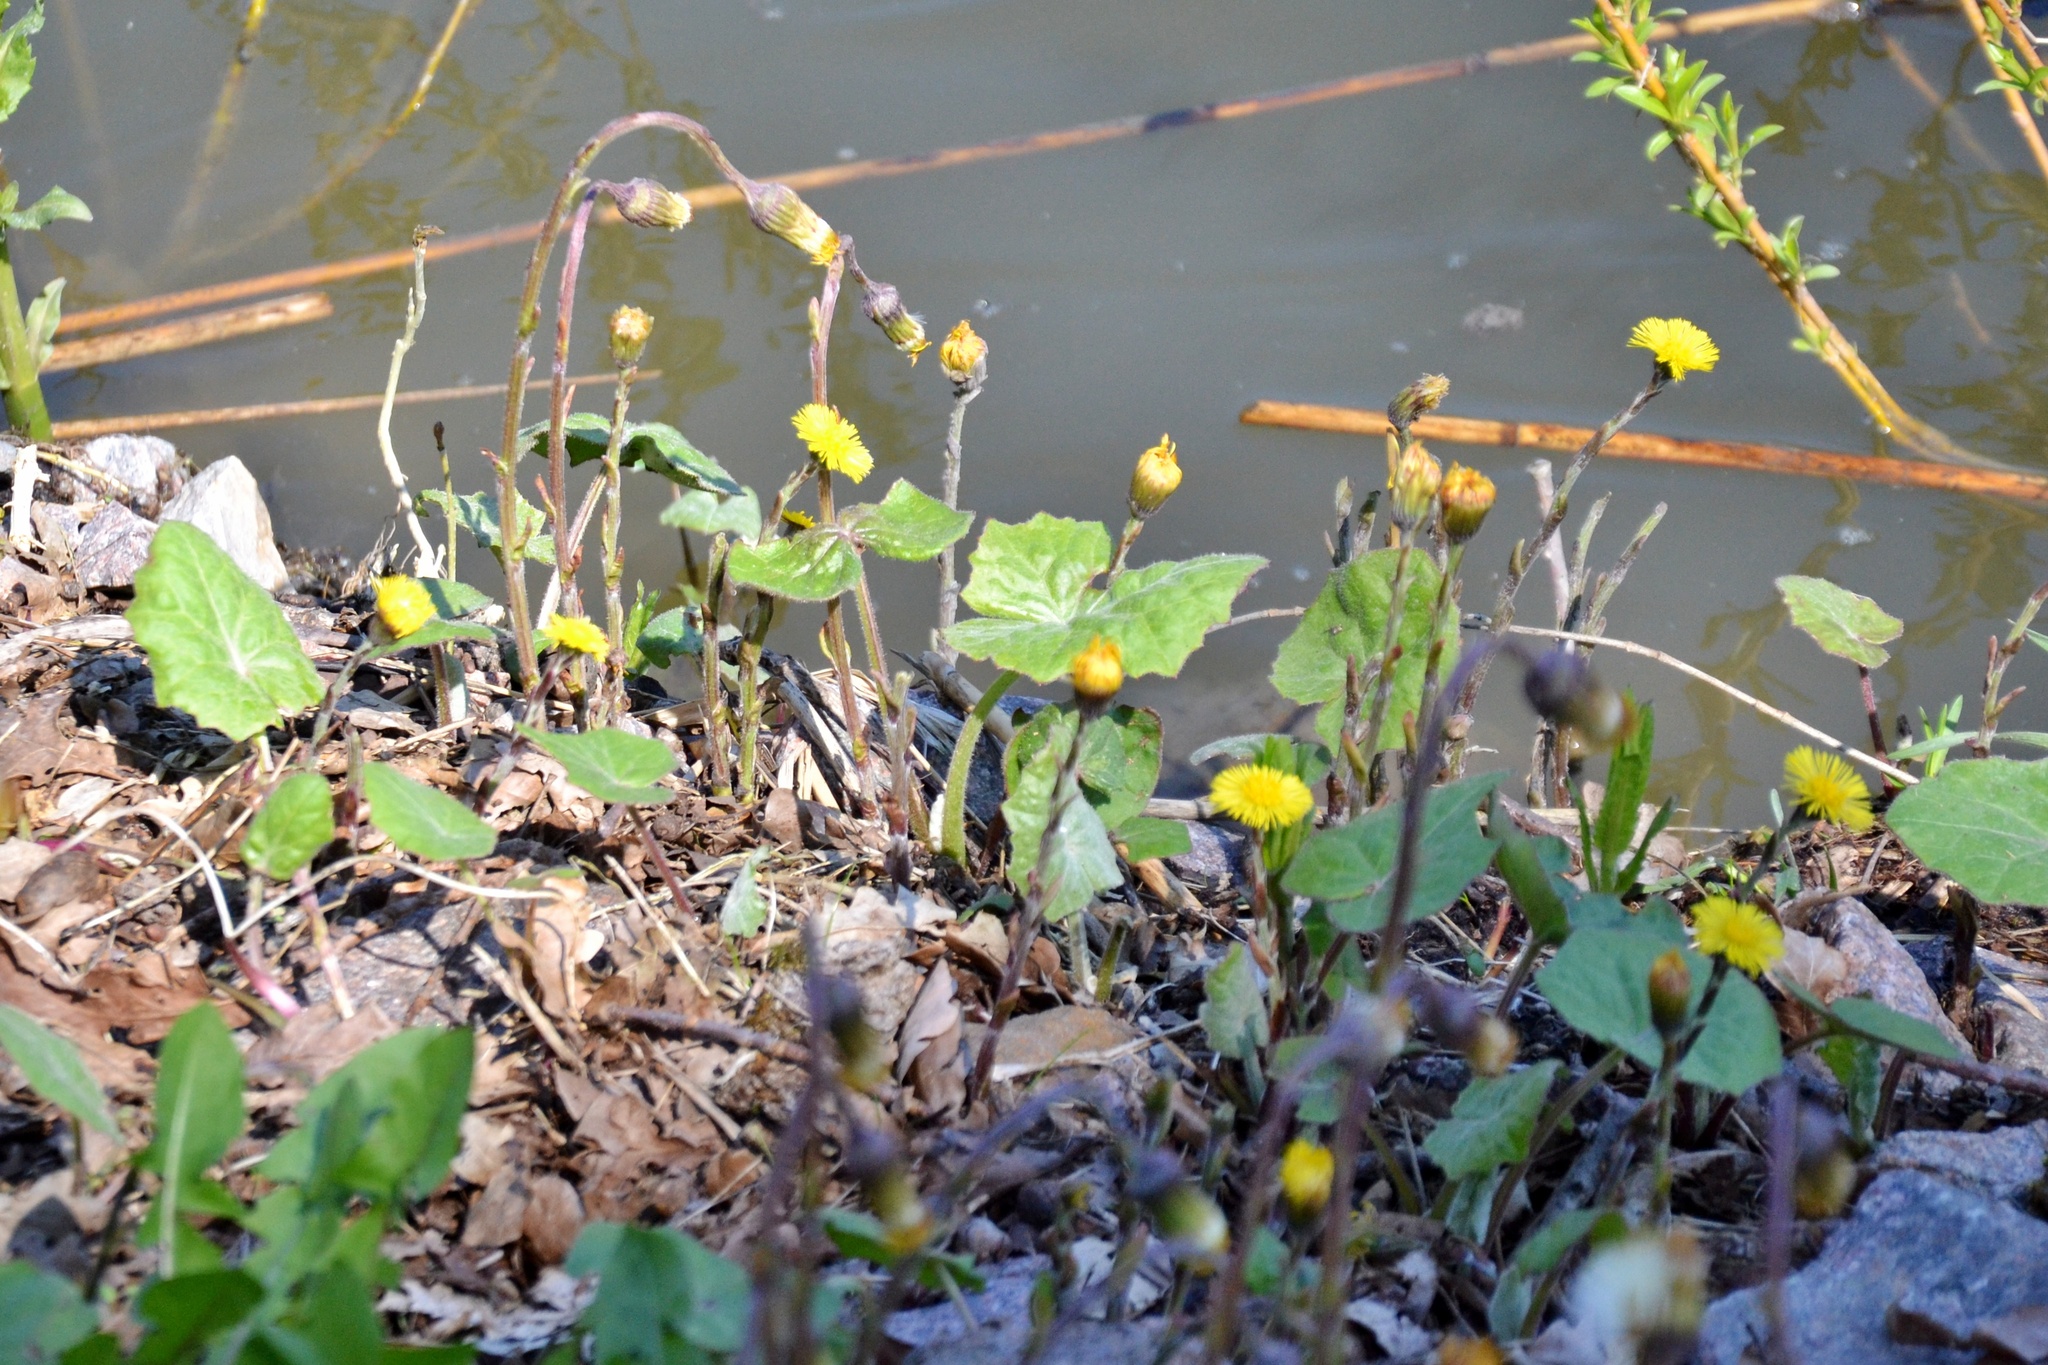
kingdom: Plantae
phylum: Tracheophyta
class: Magnoliopsida
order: Asterales
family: Asteraceae
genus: Tussilago
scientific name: Tussilago farfara
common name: Coltsfoot
